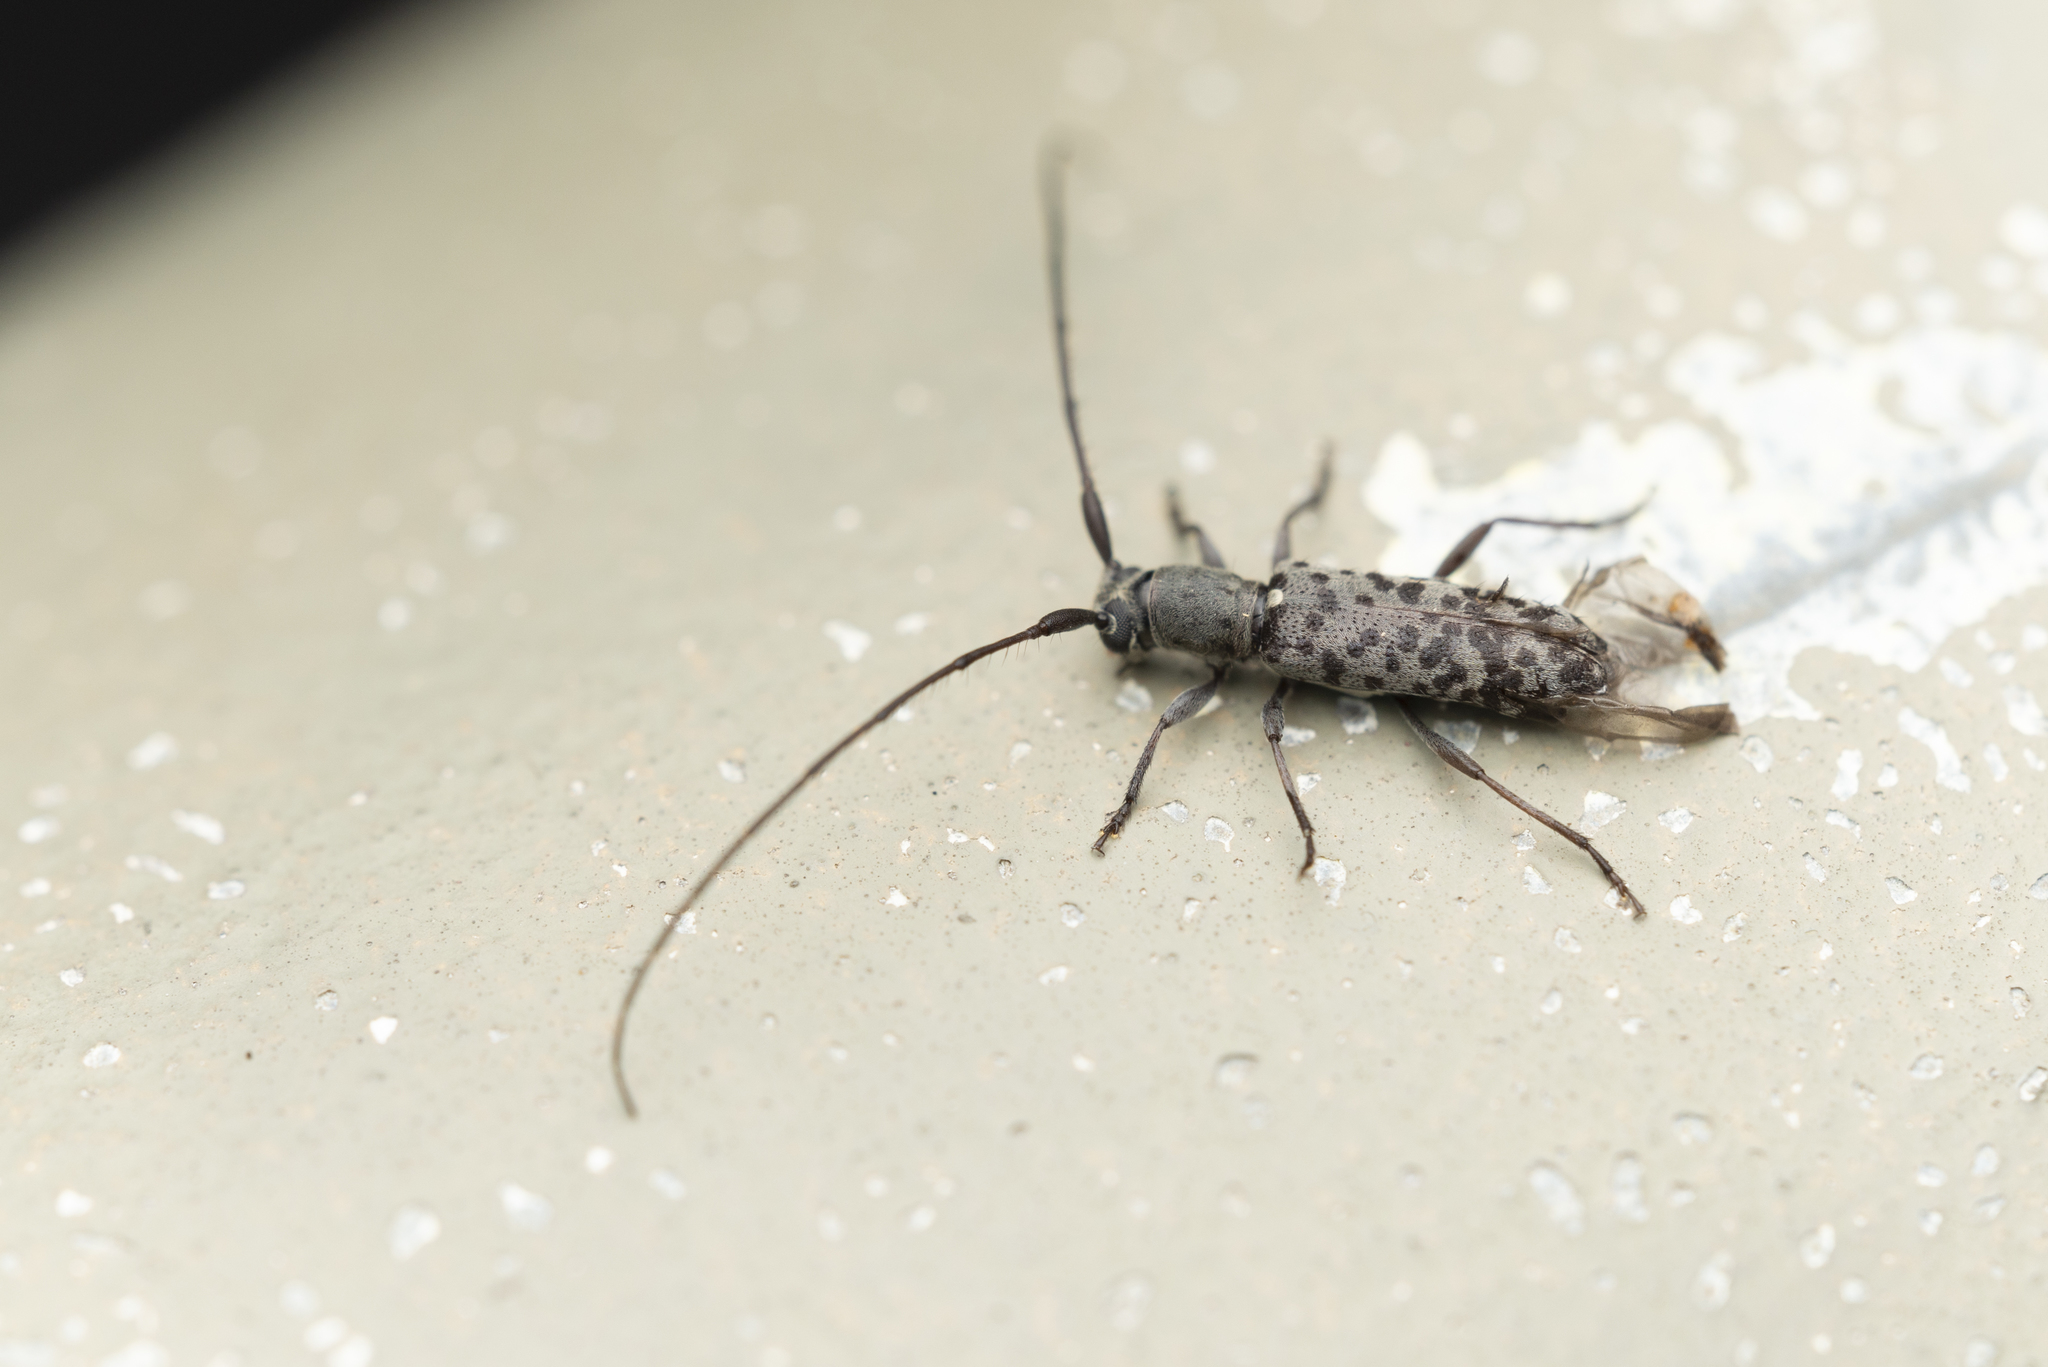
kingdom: Animalia
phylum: Arthropoda
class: Insecta
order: Coleoptera
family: Cerambycidae
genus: Rondibilis
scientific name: Rondibilis undulatus
